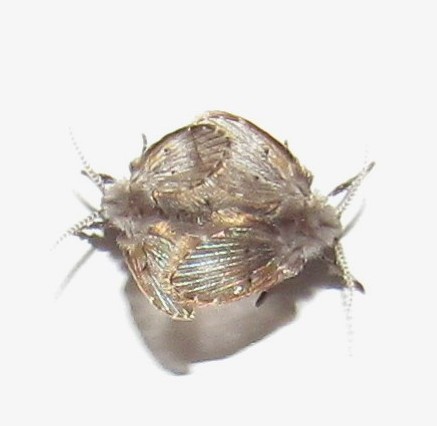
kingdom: Animalia
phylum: Arthropoda
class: Insecta
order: Diptera
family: Psychodidae
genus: Clogmia
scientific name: Clogmia albipunctatus
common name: White-spotted moth fly
